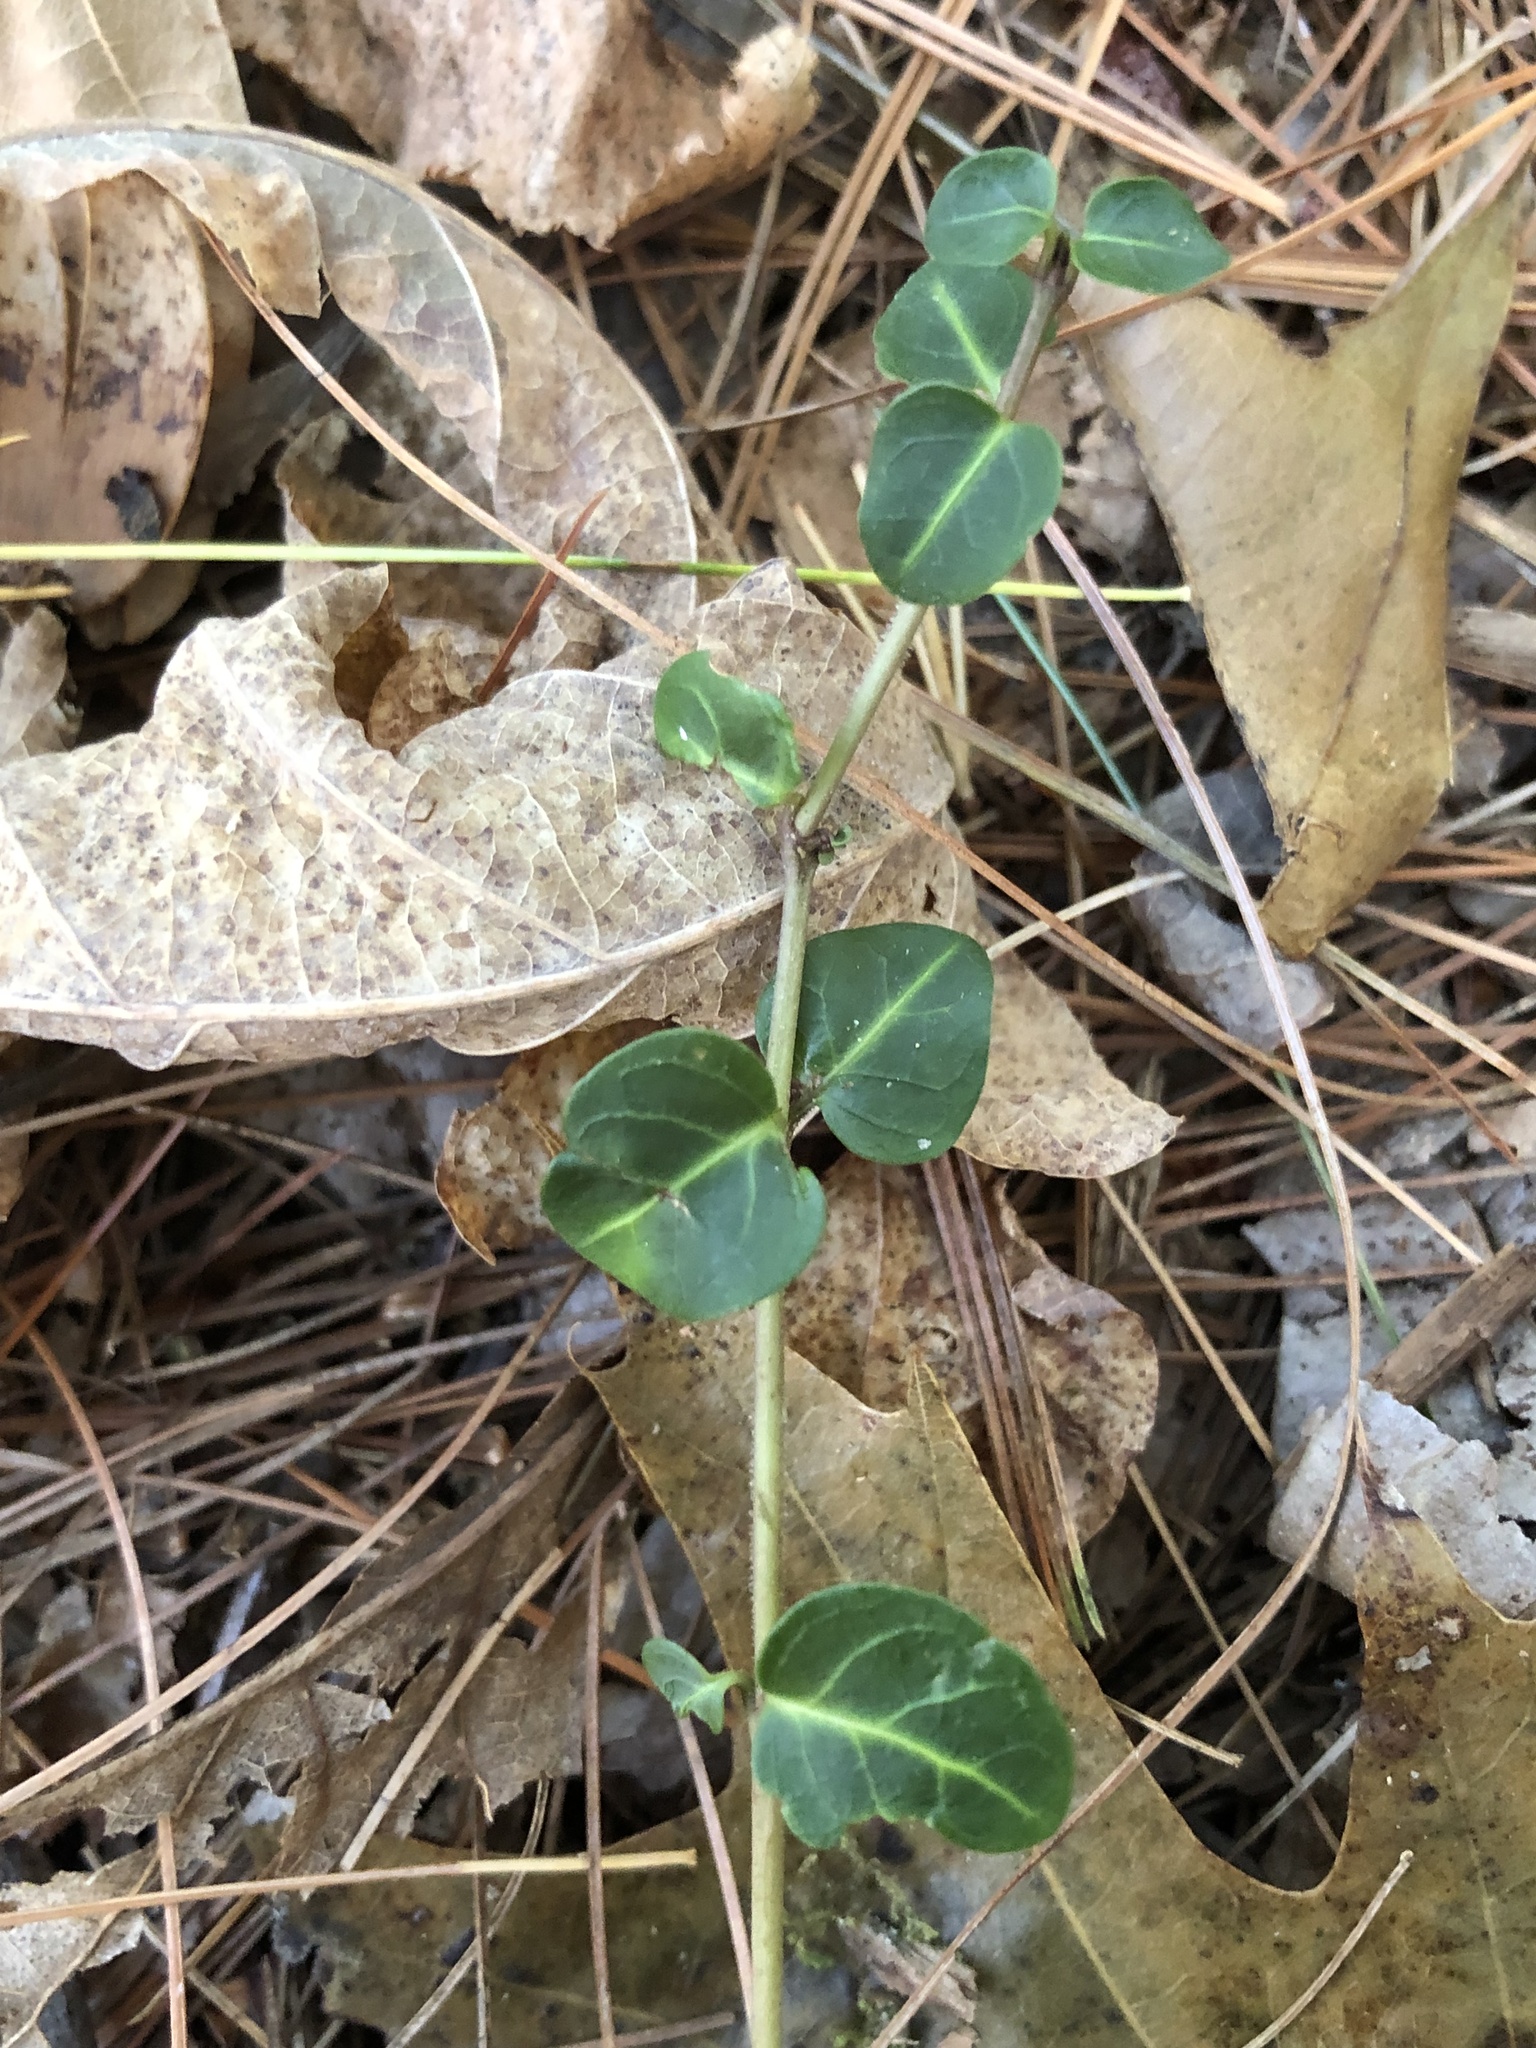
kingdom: Plantae
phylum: Tracheophyta
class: Magnoliopsida
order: Gentianales
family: Rubiaceae
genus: Mitchella
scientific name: Mitchella repens
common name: Partridge-berry
